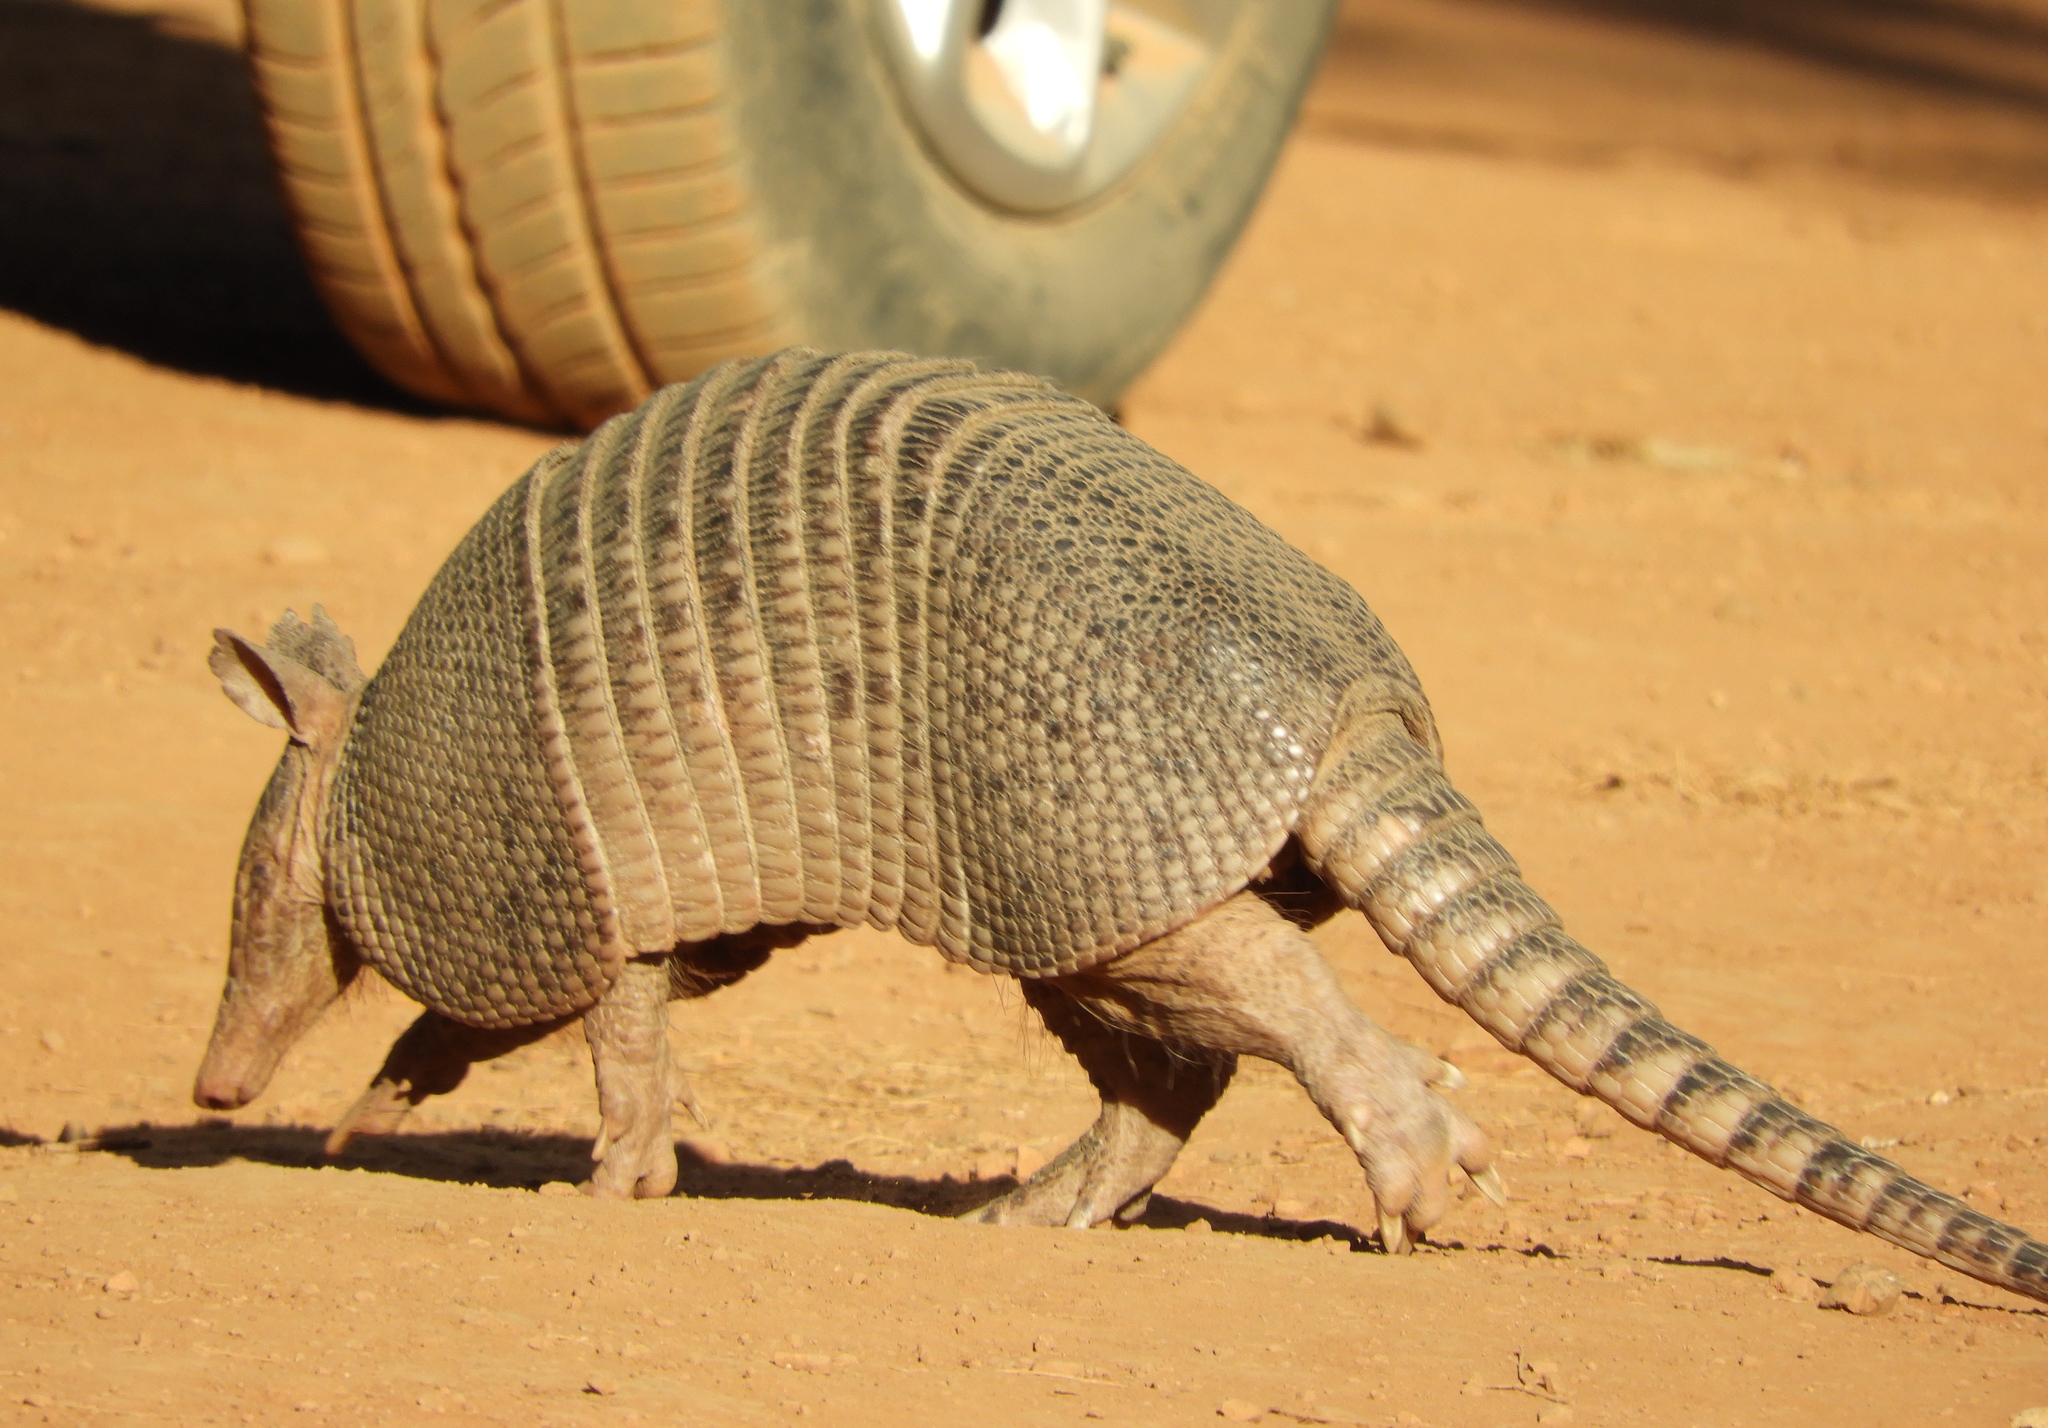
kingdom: Animalia
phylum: Chordata
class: Mammalia
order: Cingulata
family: Dasypodidae
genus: Dasypus
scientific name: Dasypus novemcinctus
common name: Nine-banded armadillo
